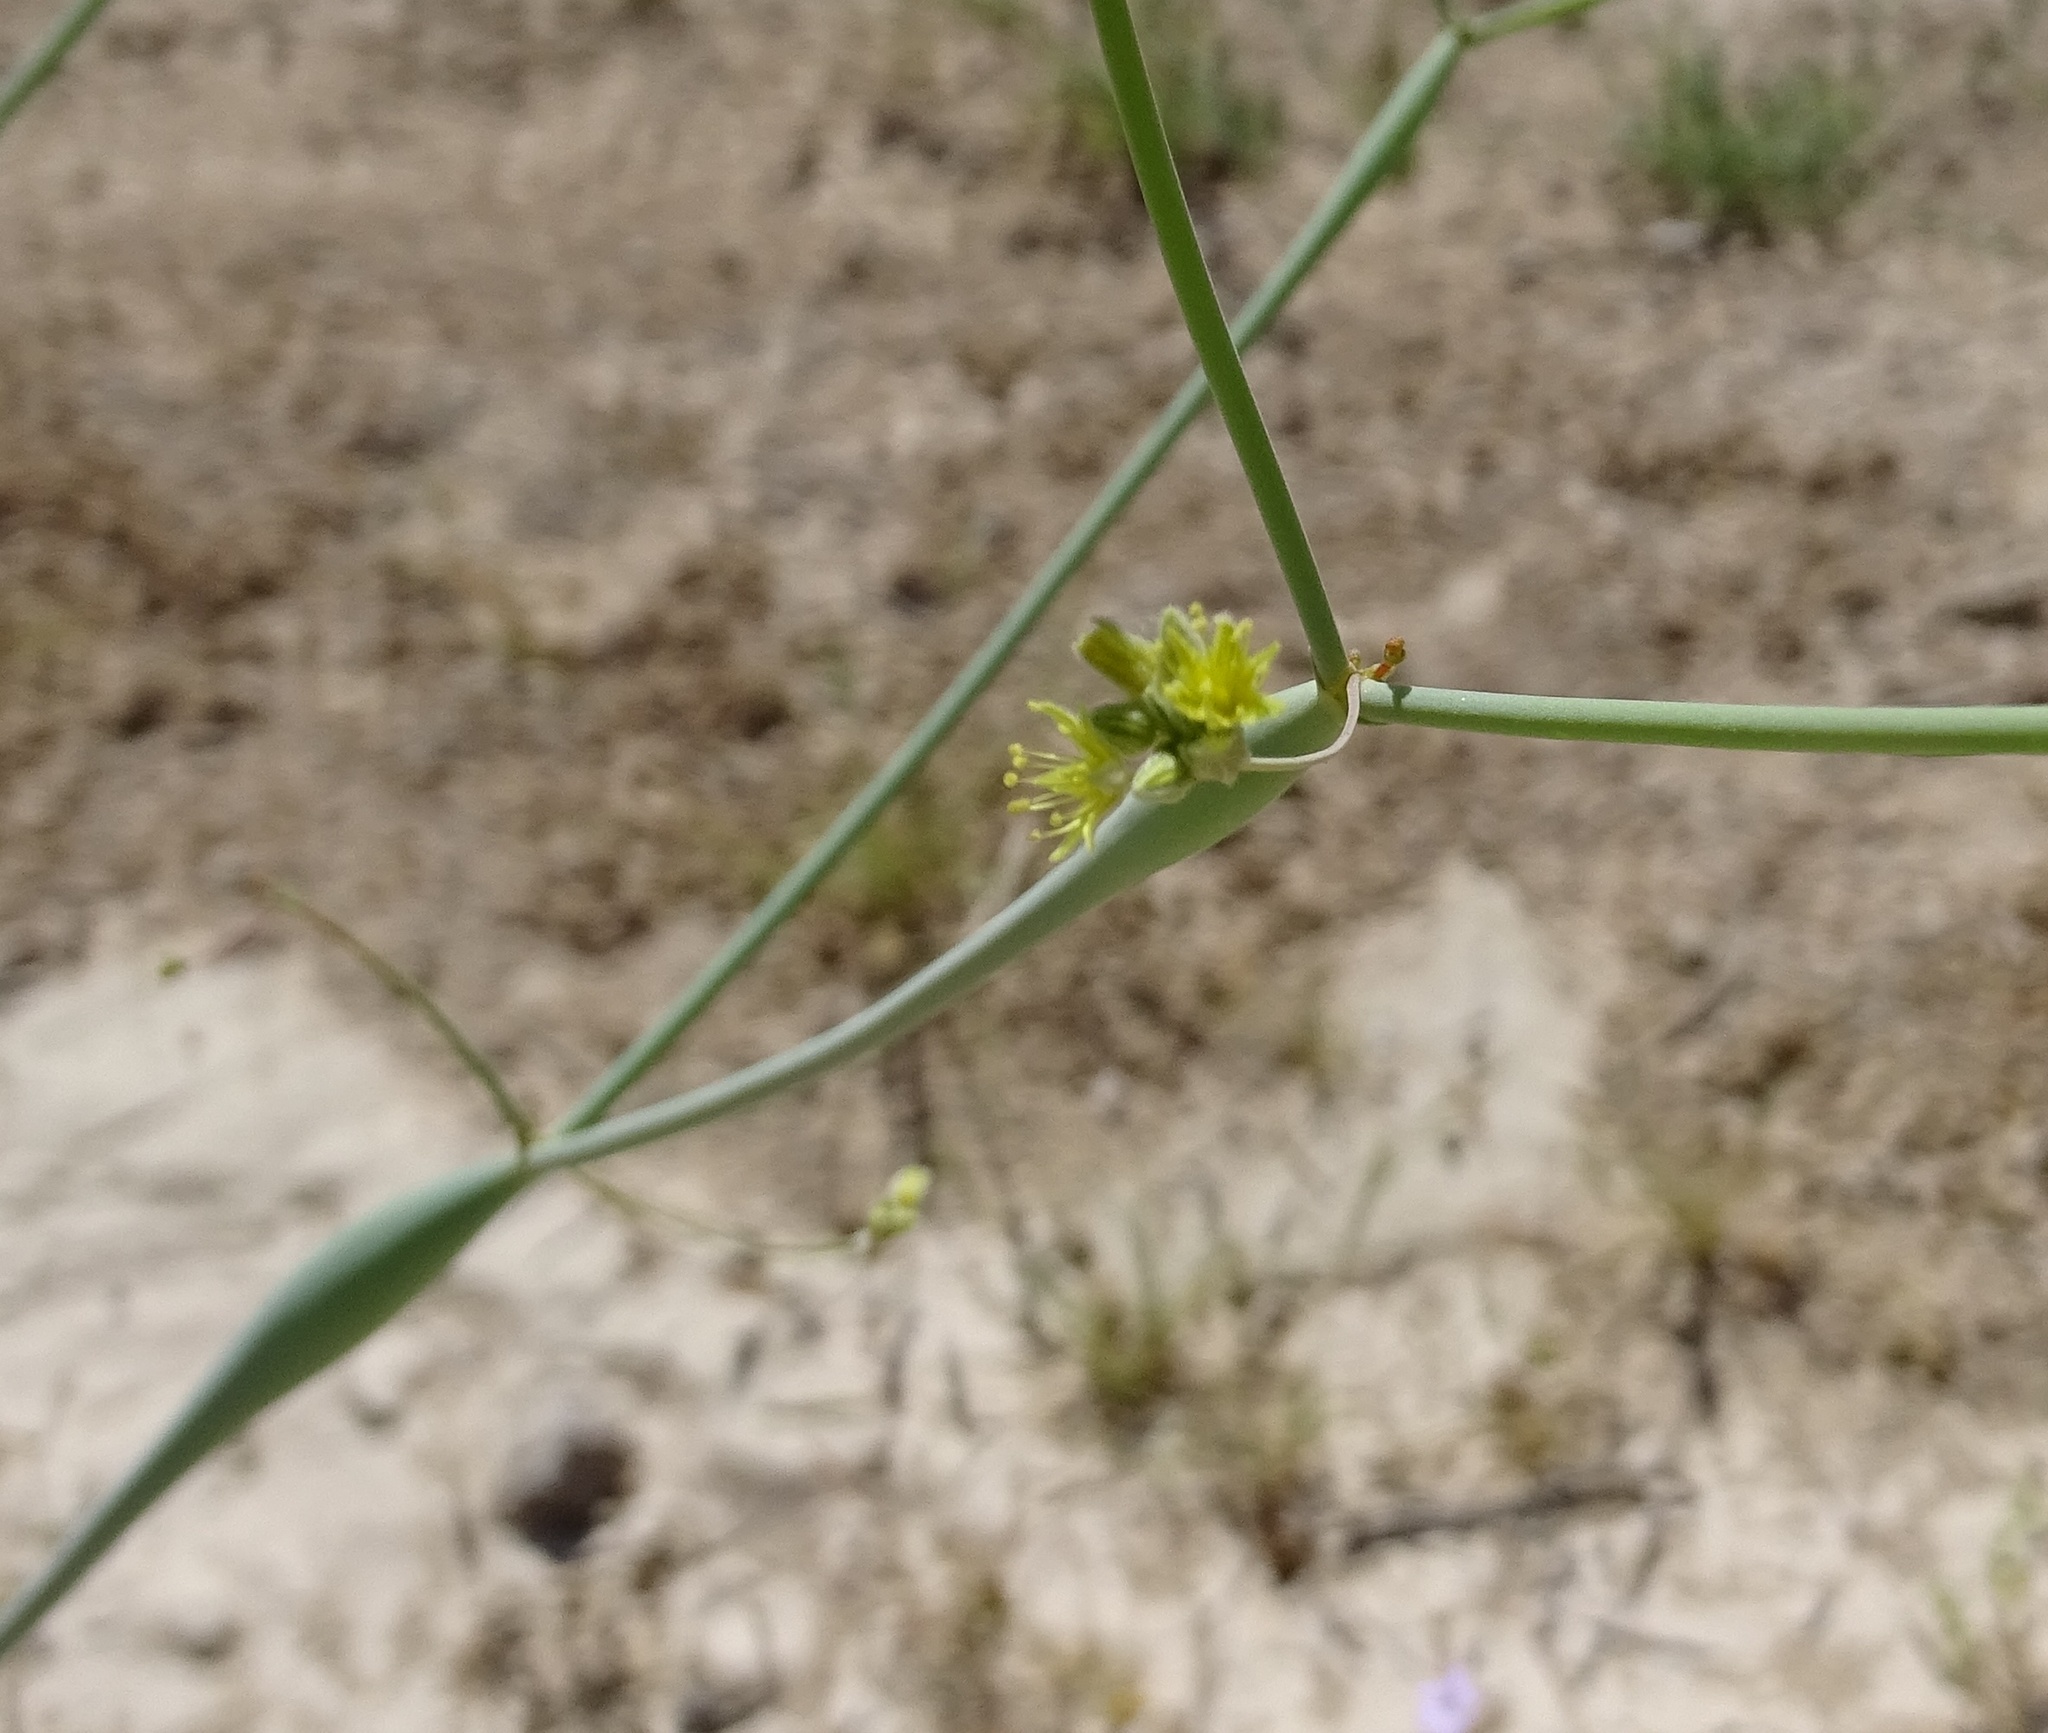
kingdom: Plantae
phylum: Tracheophyta
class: Magnoliopsida
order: Caryophyllales
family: Polygonaceae
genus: Eriogonum
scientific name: Eriogonum inflatum
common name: Desert trumpet
